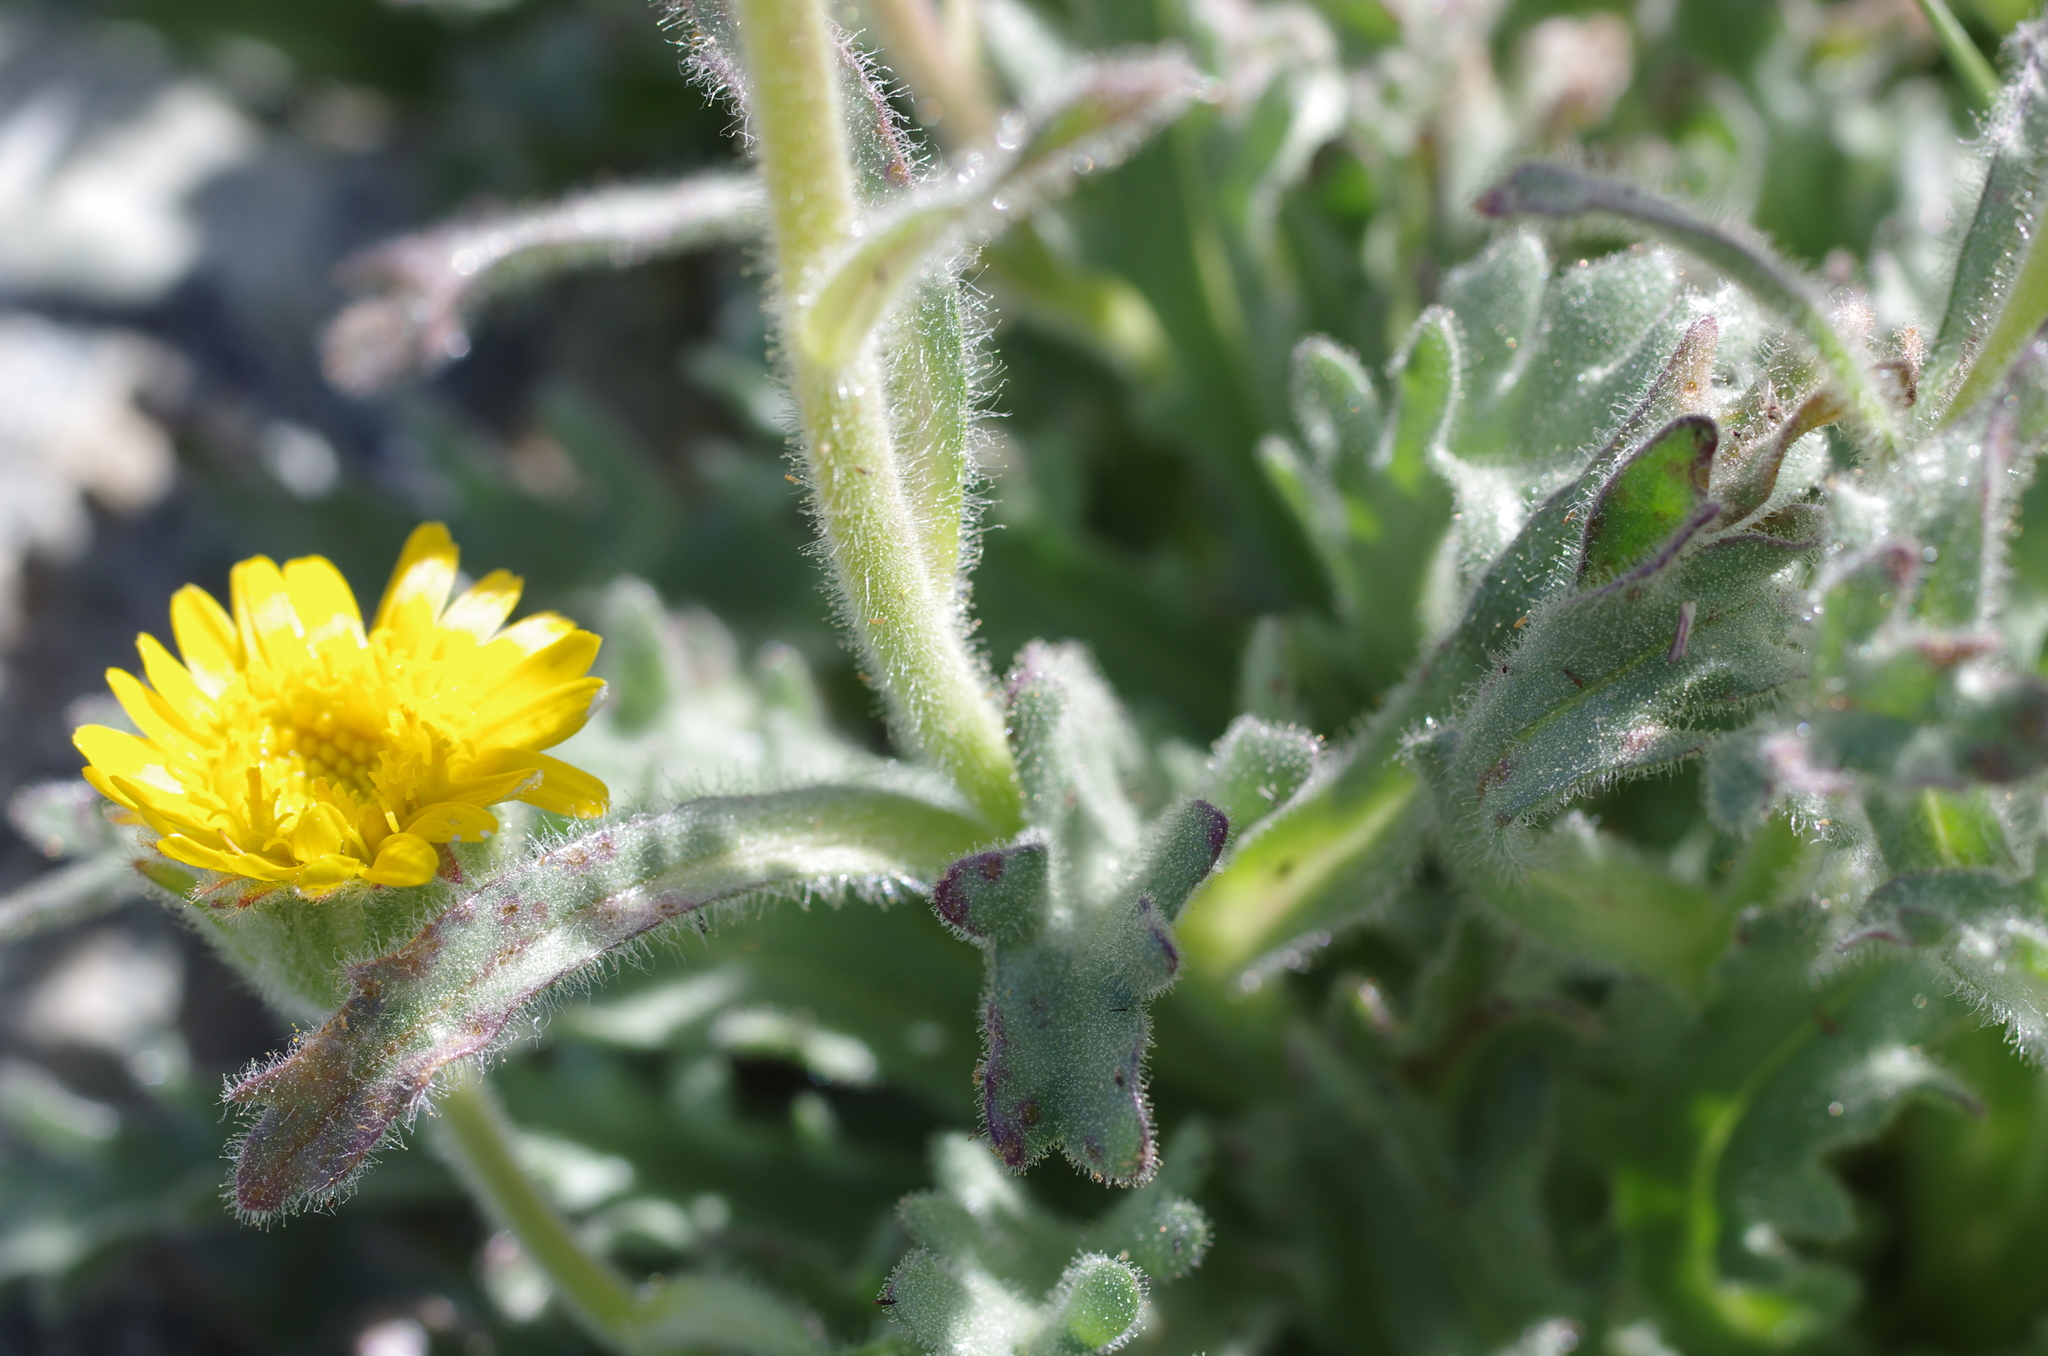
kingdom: Plantae
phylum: Tracheophyta
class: Magnoliopsida
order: Asterales
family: Asteraceae
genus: Hulsea
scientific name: Hulsea nana
